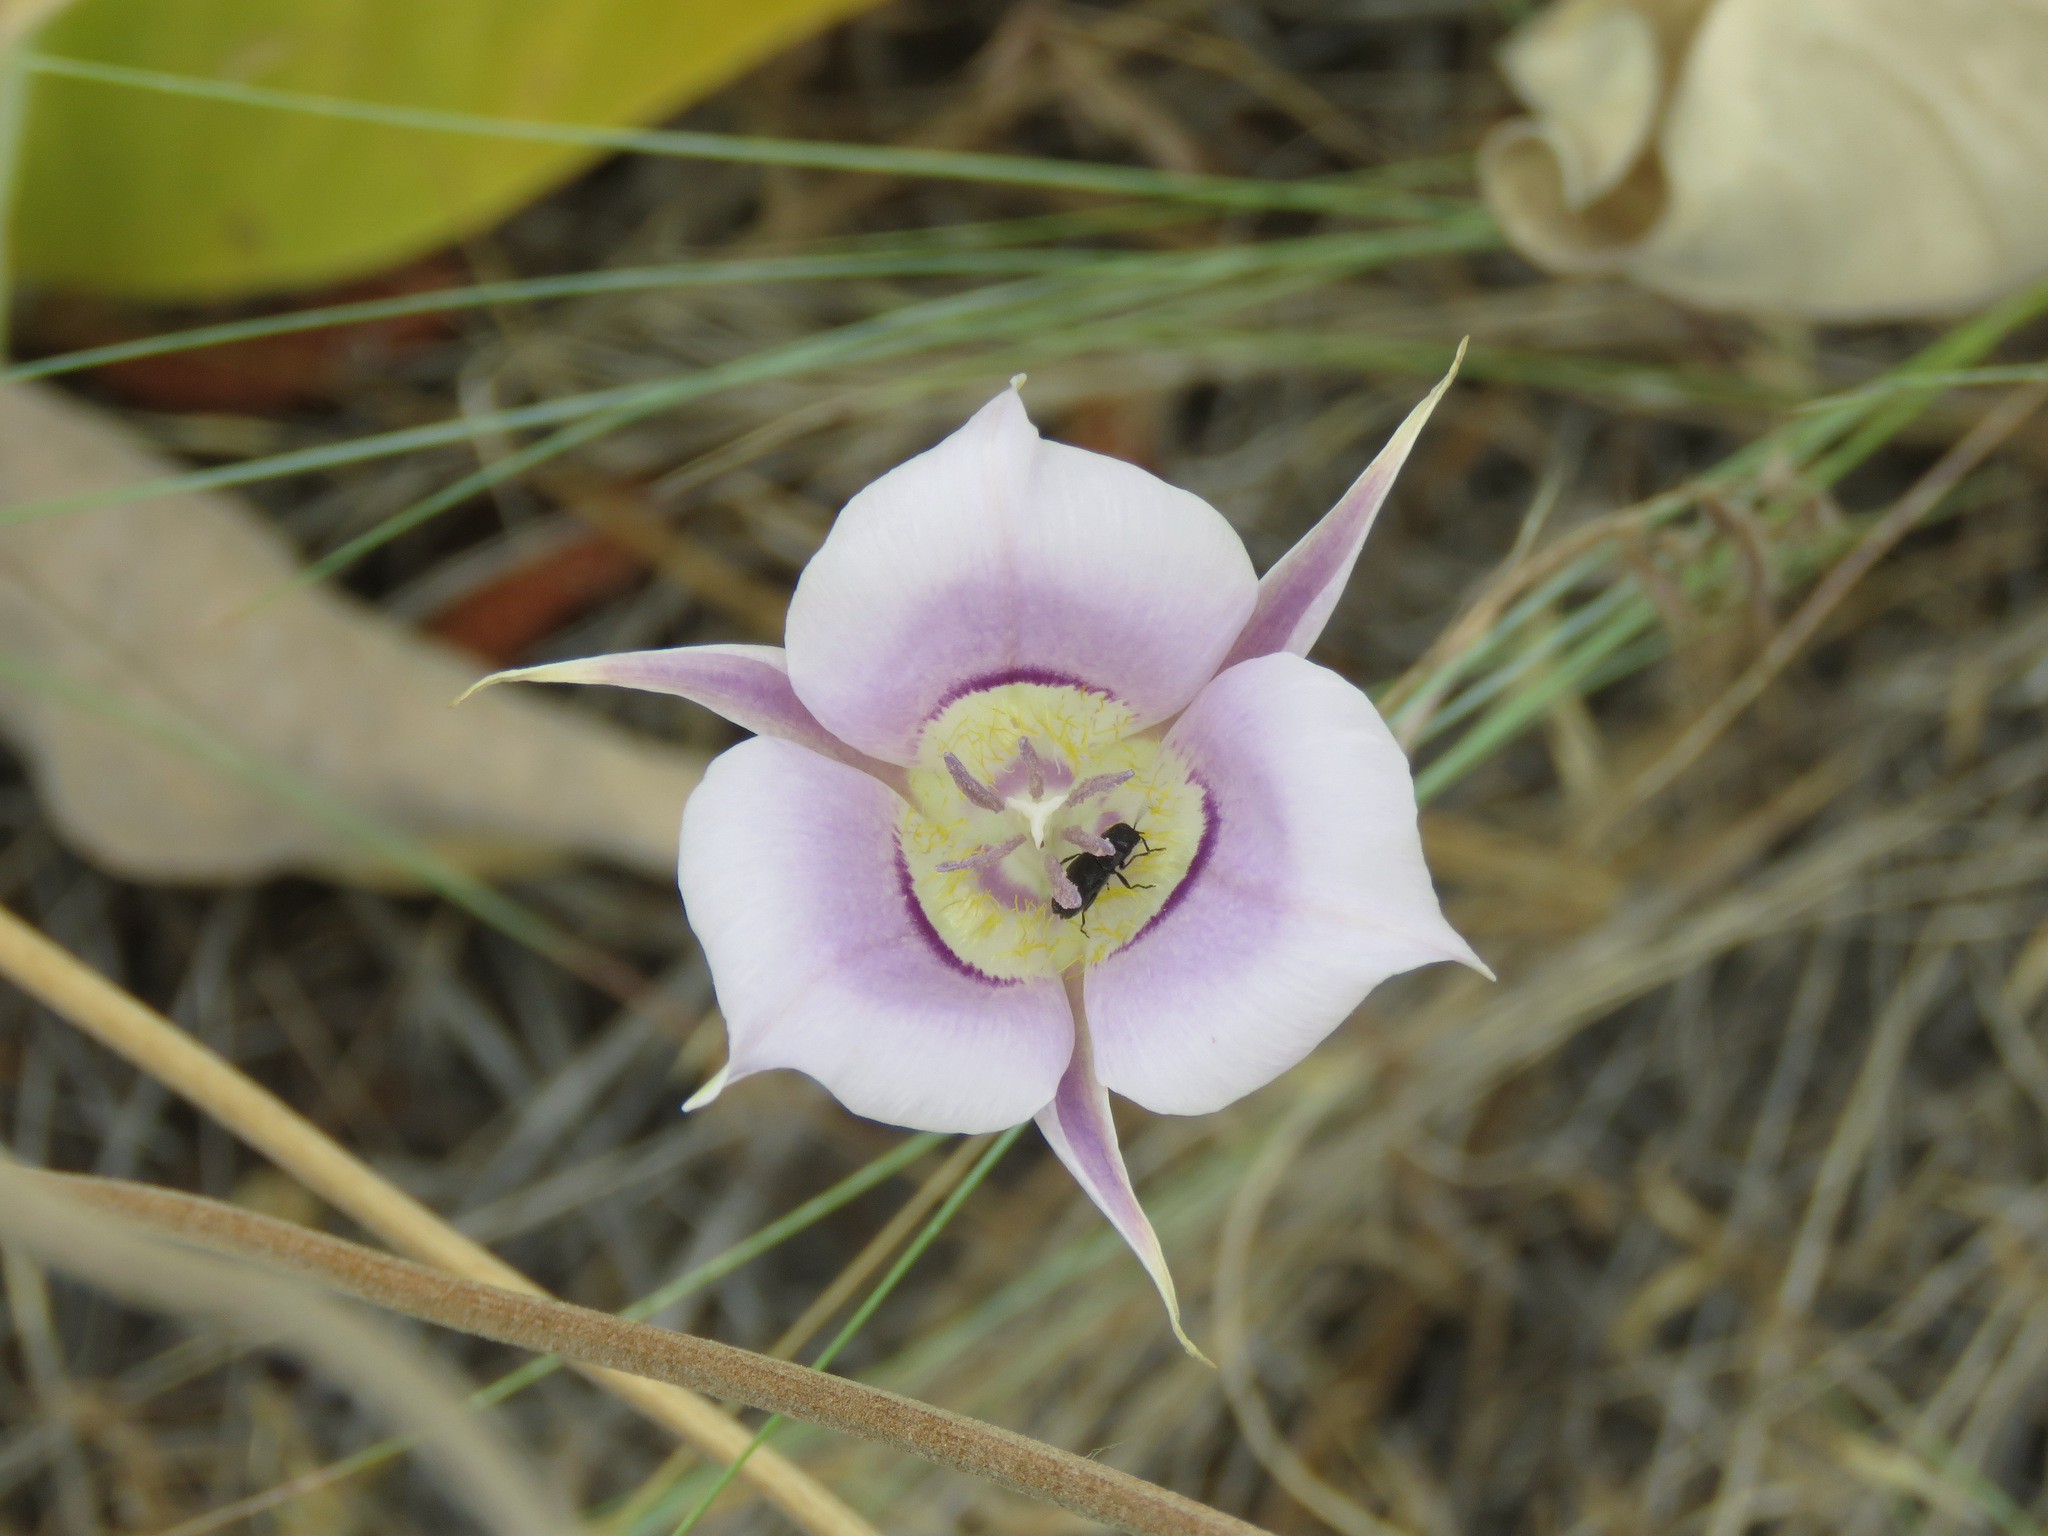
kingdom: Plantae
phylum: Tracheophyta
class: Liliopsida
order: Liliales
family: Liliaceae
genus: Calochortus
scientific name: Calochortus macrocarpus
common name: Green-band mariposa lily
